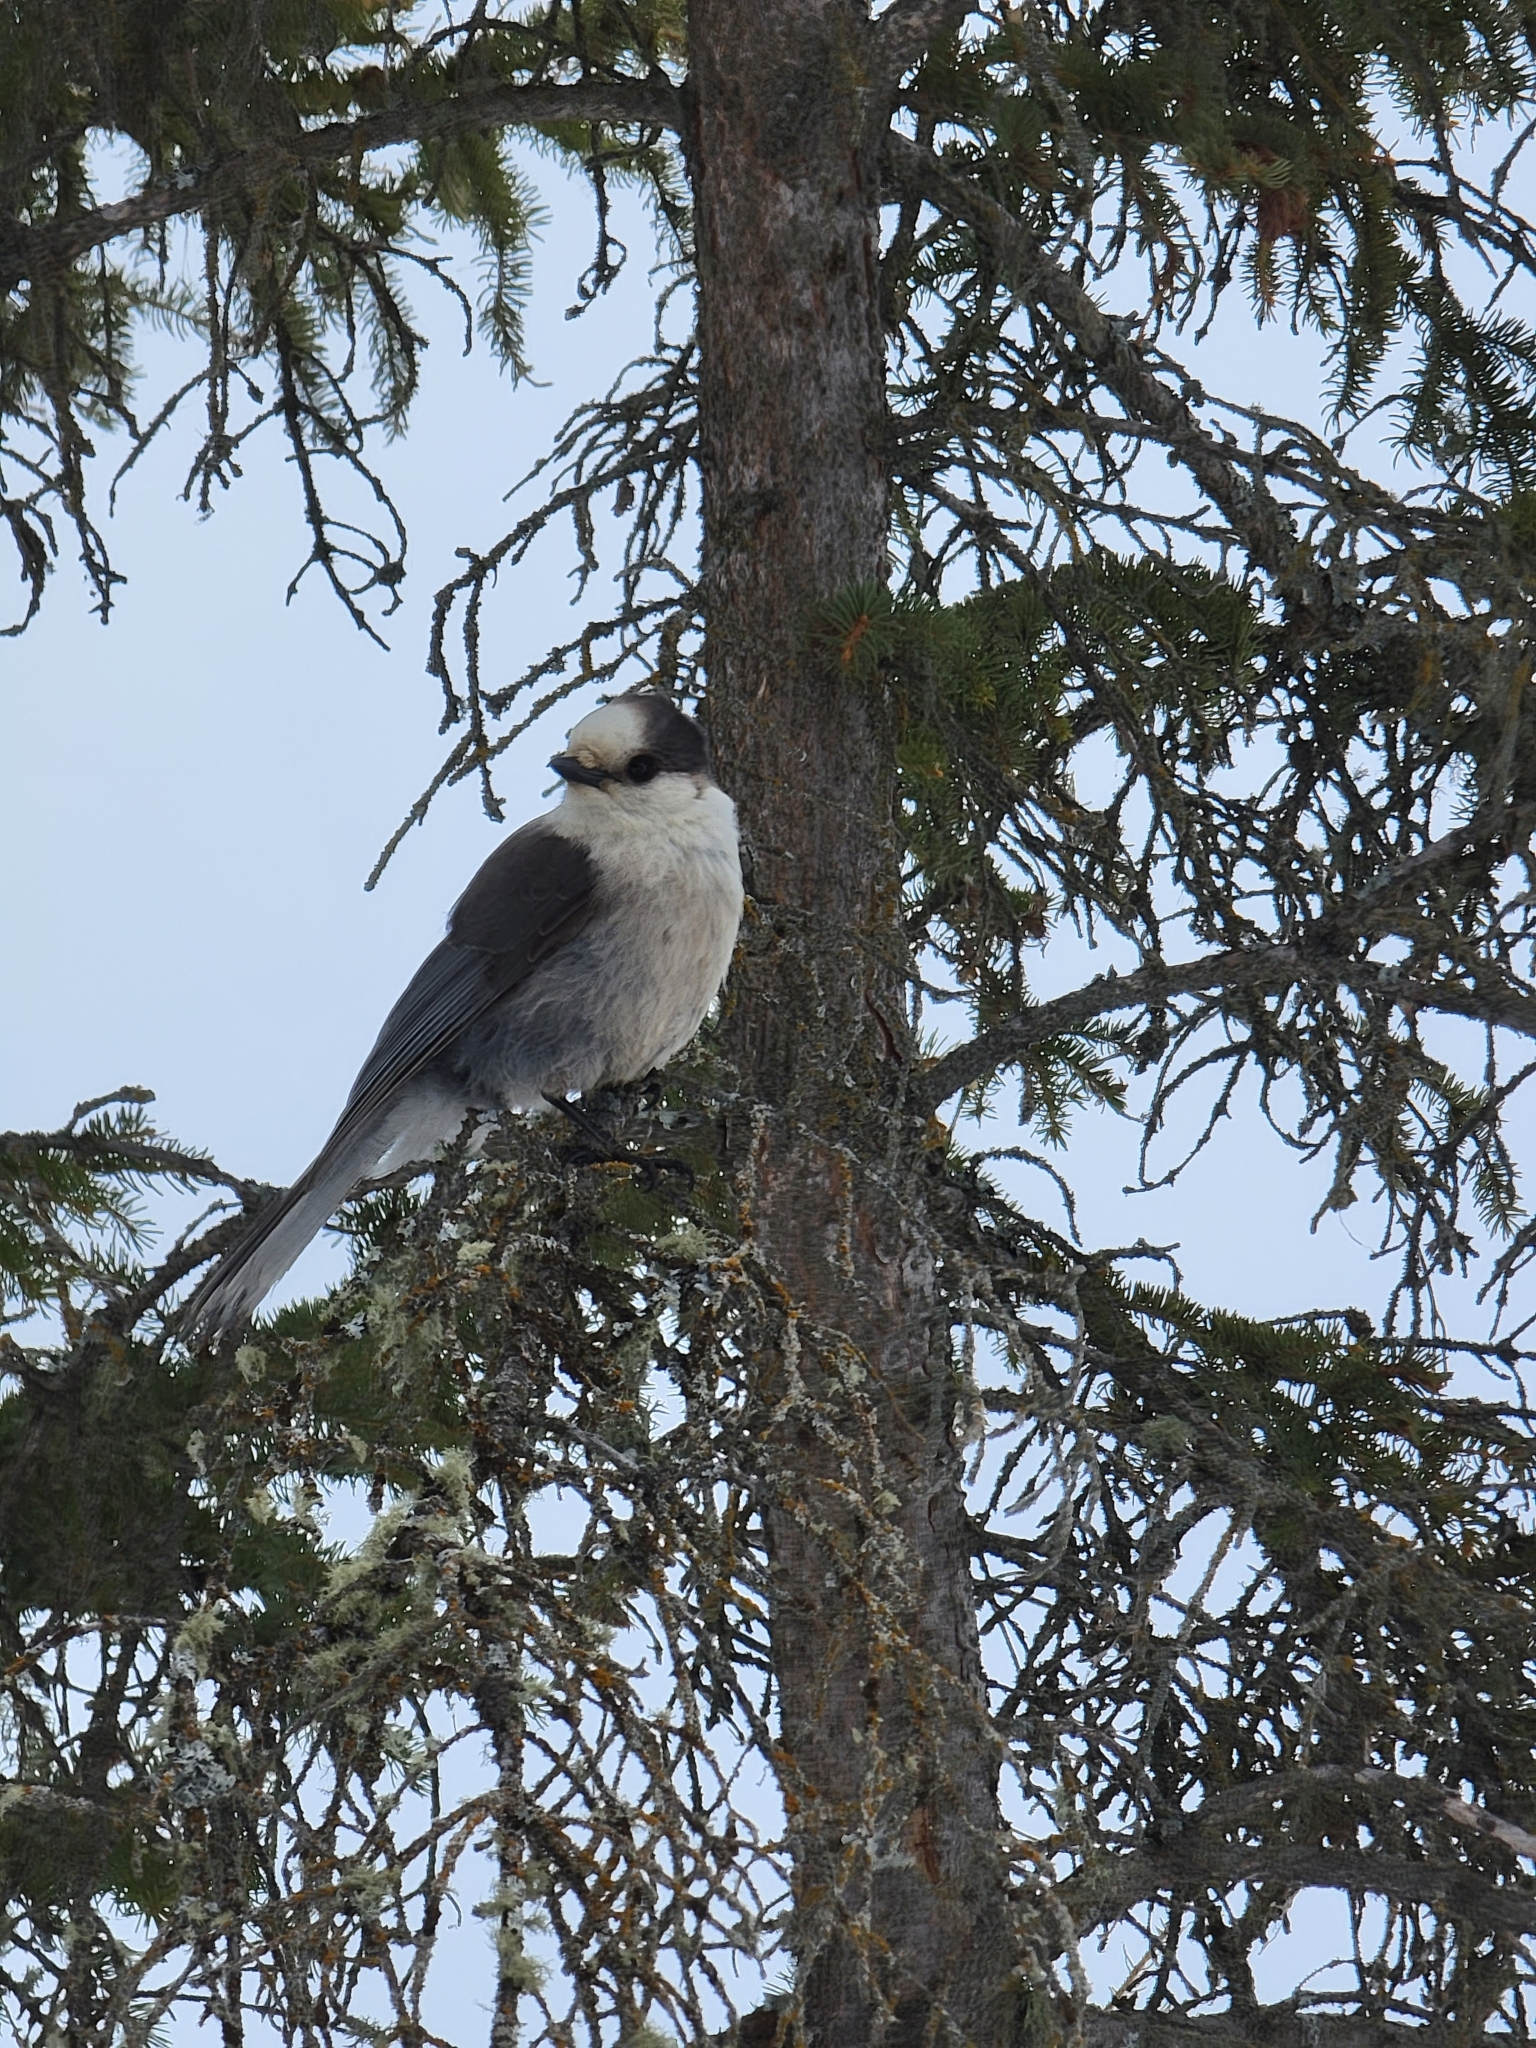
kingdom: Animalia
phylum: Chordata
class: Aves
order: Passeriformes
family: Corvidae
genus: Perisoreus
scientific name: Perisoreus canadensis
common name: Gray jay
